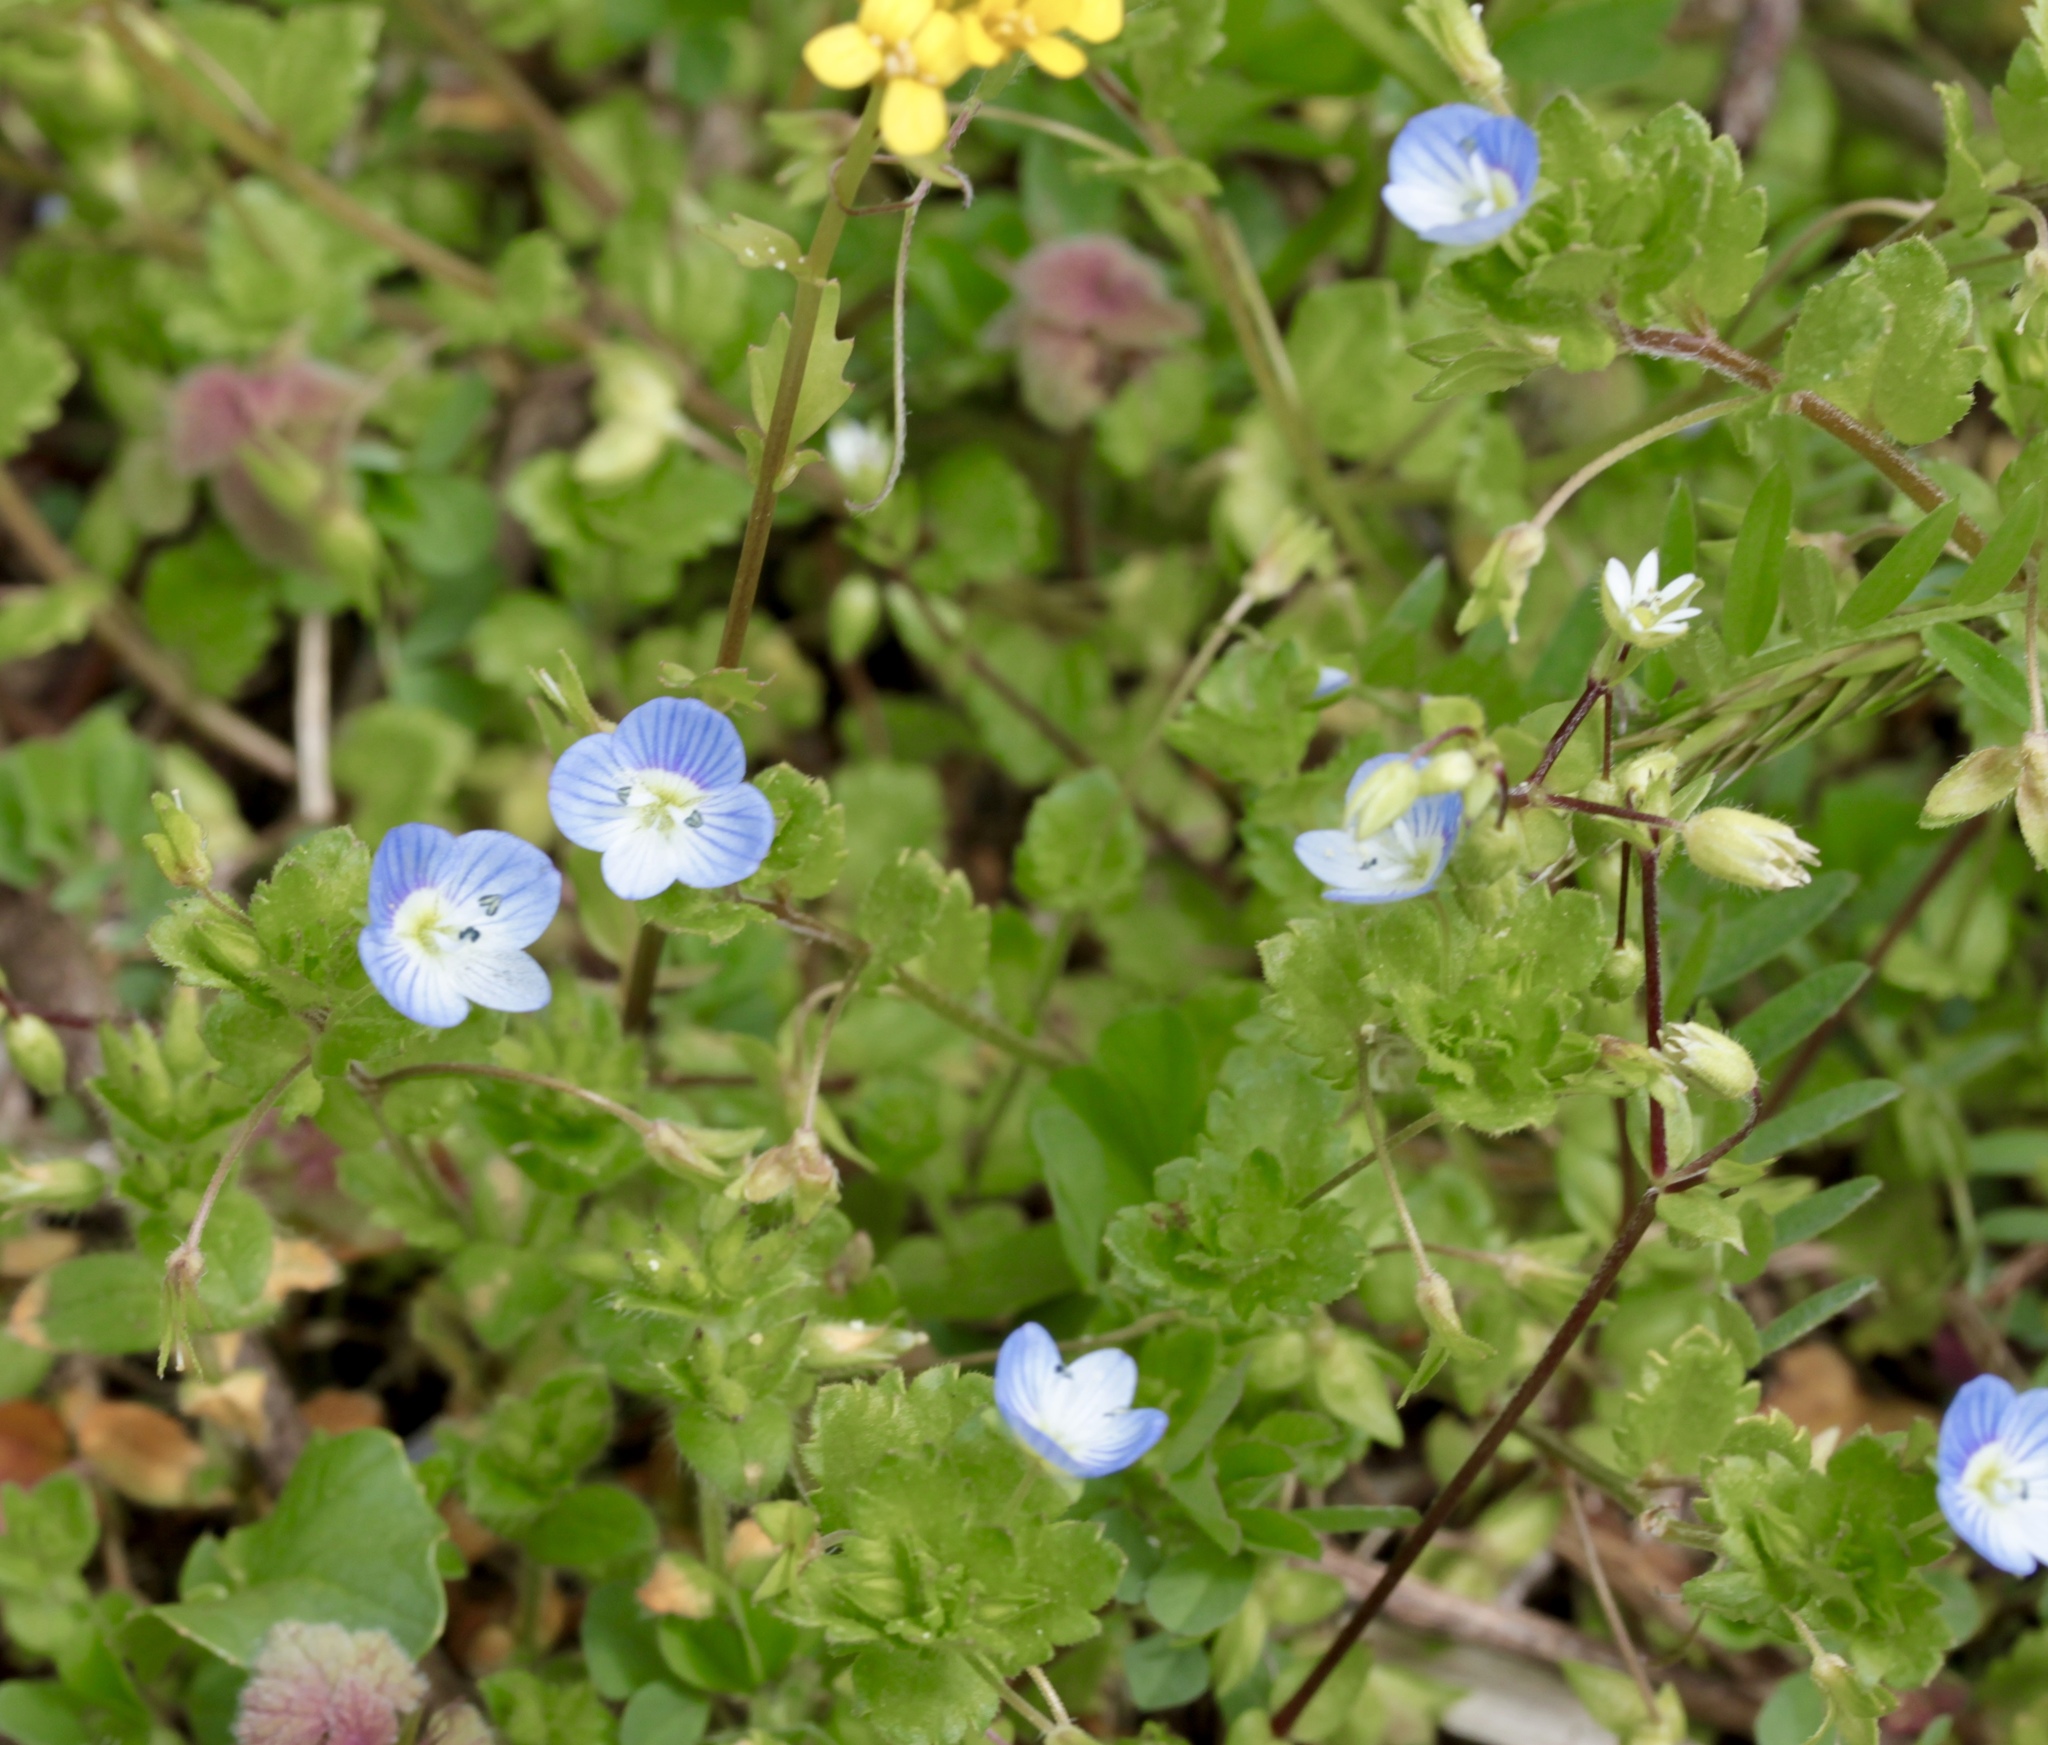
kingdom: Plantae
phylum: Tracheophyta
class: Magnoliopsida
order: Lamiales
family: Plantaginaceae
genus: Veronica
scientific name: Veronica persica
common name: Common field-speedwell
